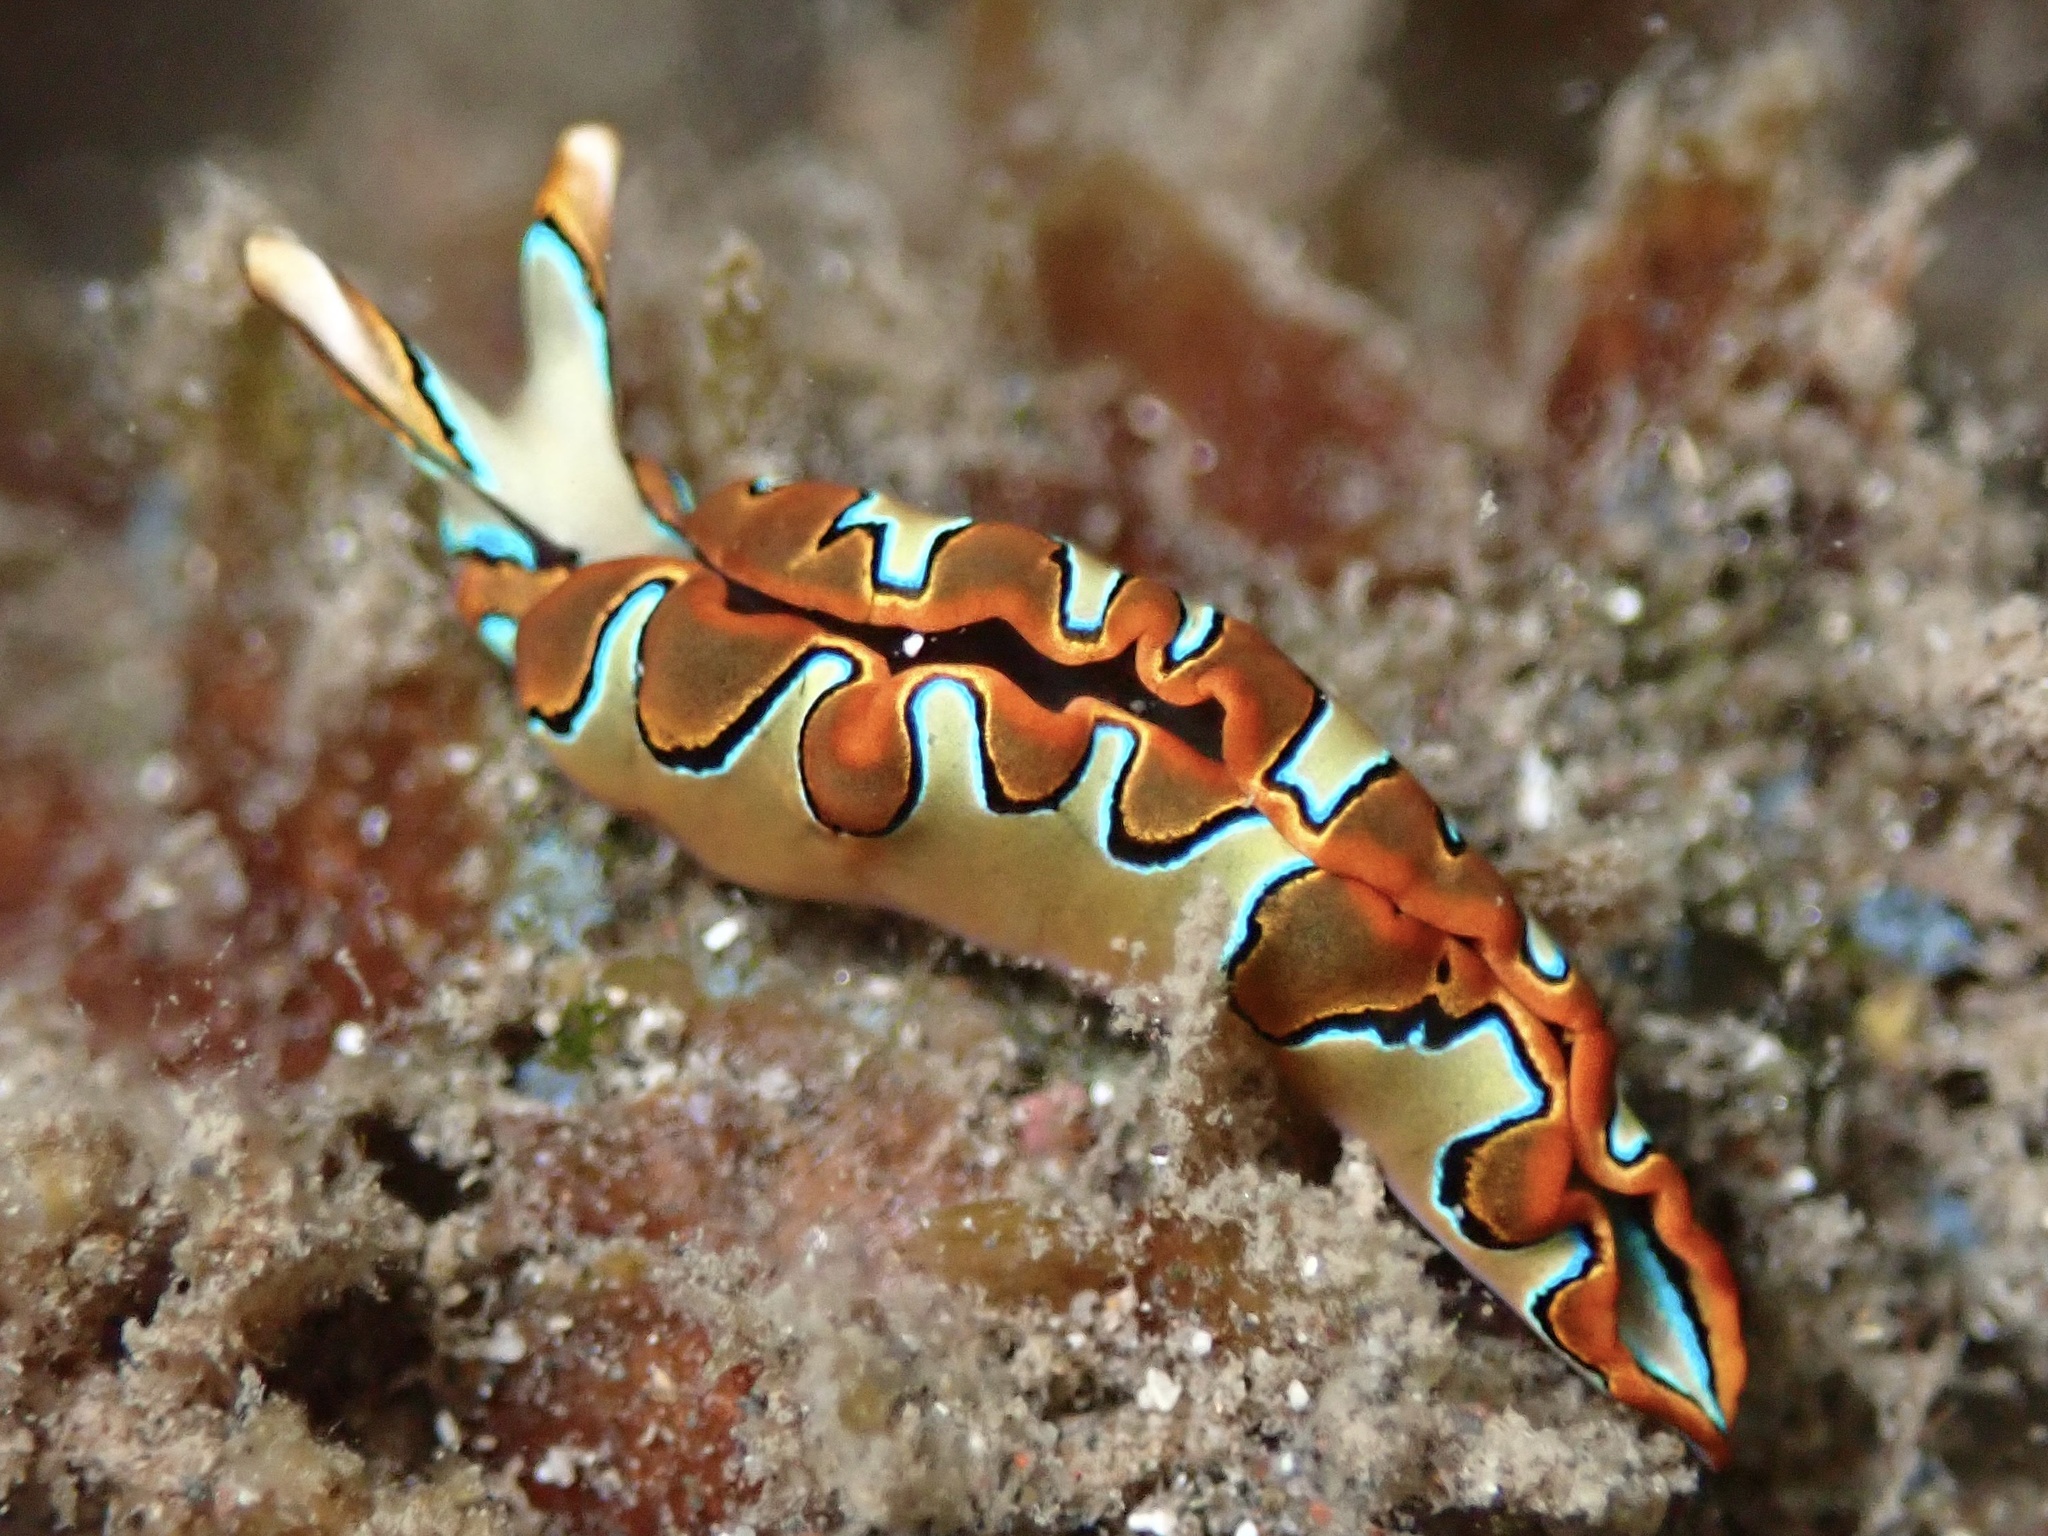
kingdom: Animalia
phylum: Mollusca
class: Gastropoda
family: Plakobranchidae
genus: Thuridilla
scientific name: Thuridilla neona
